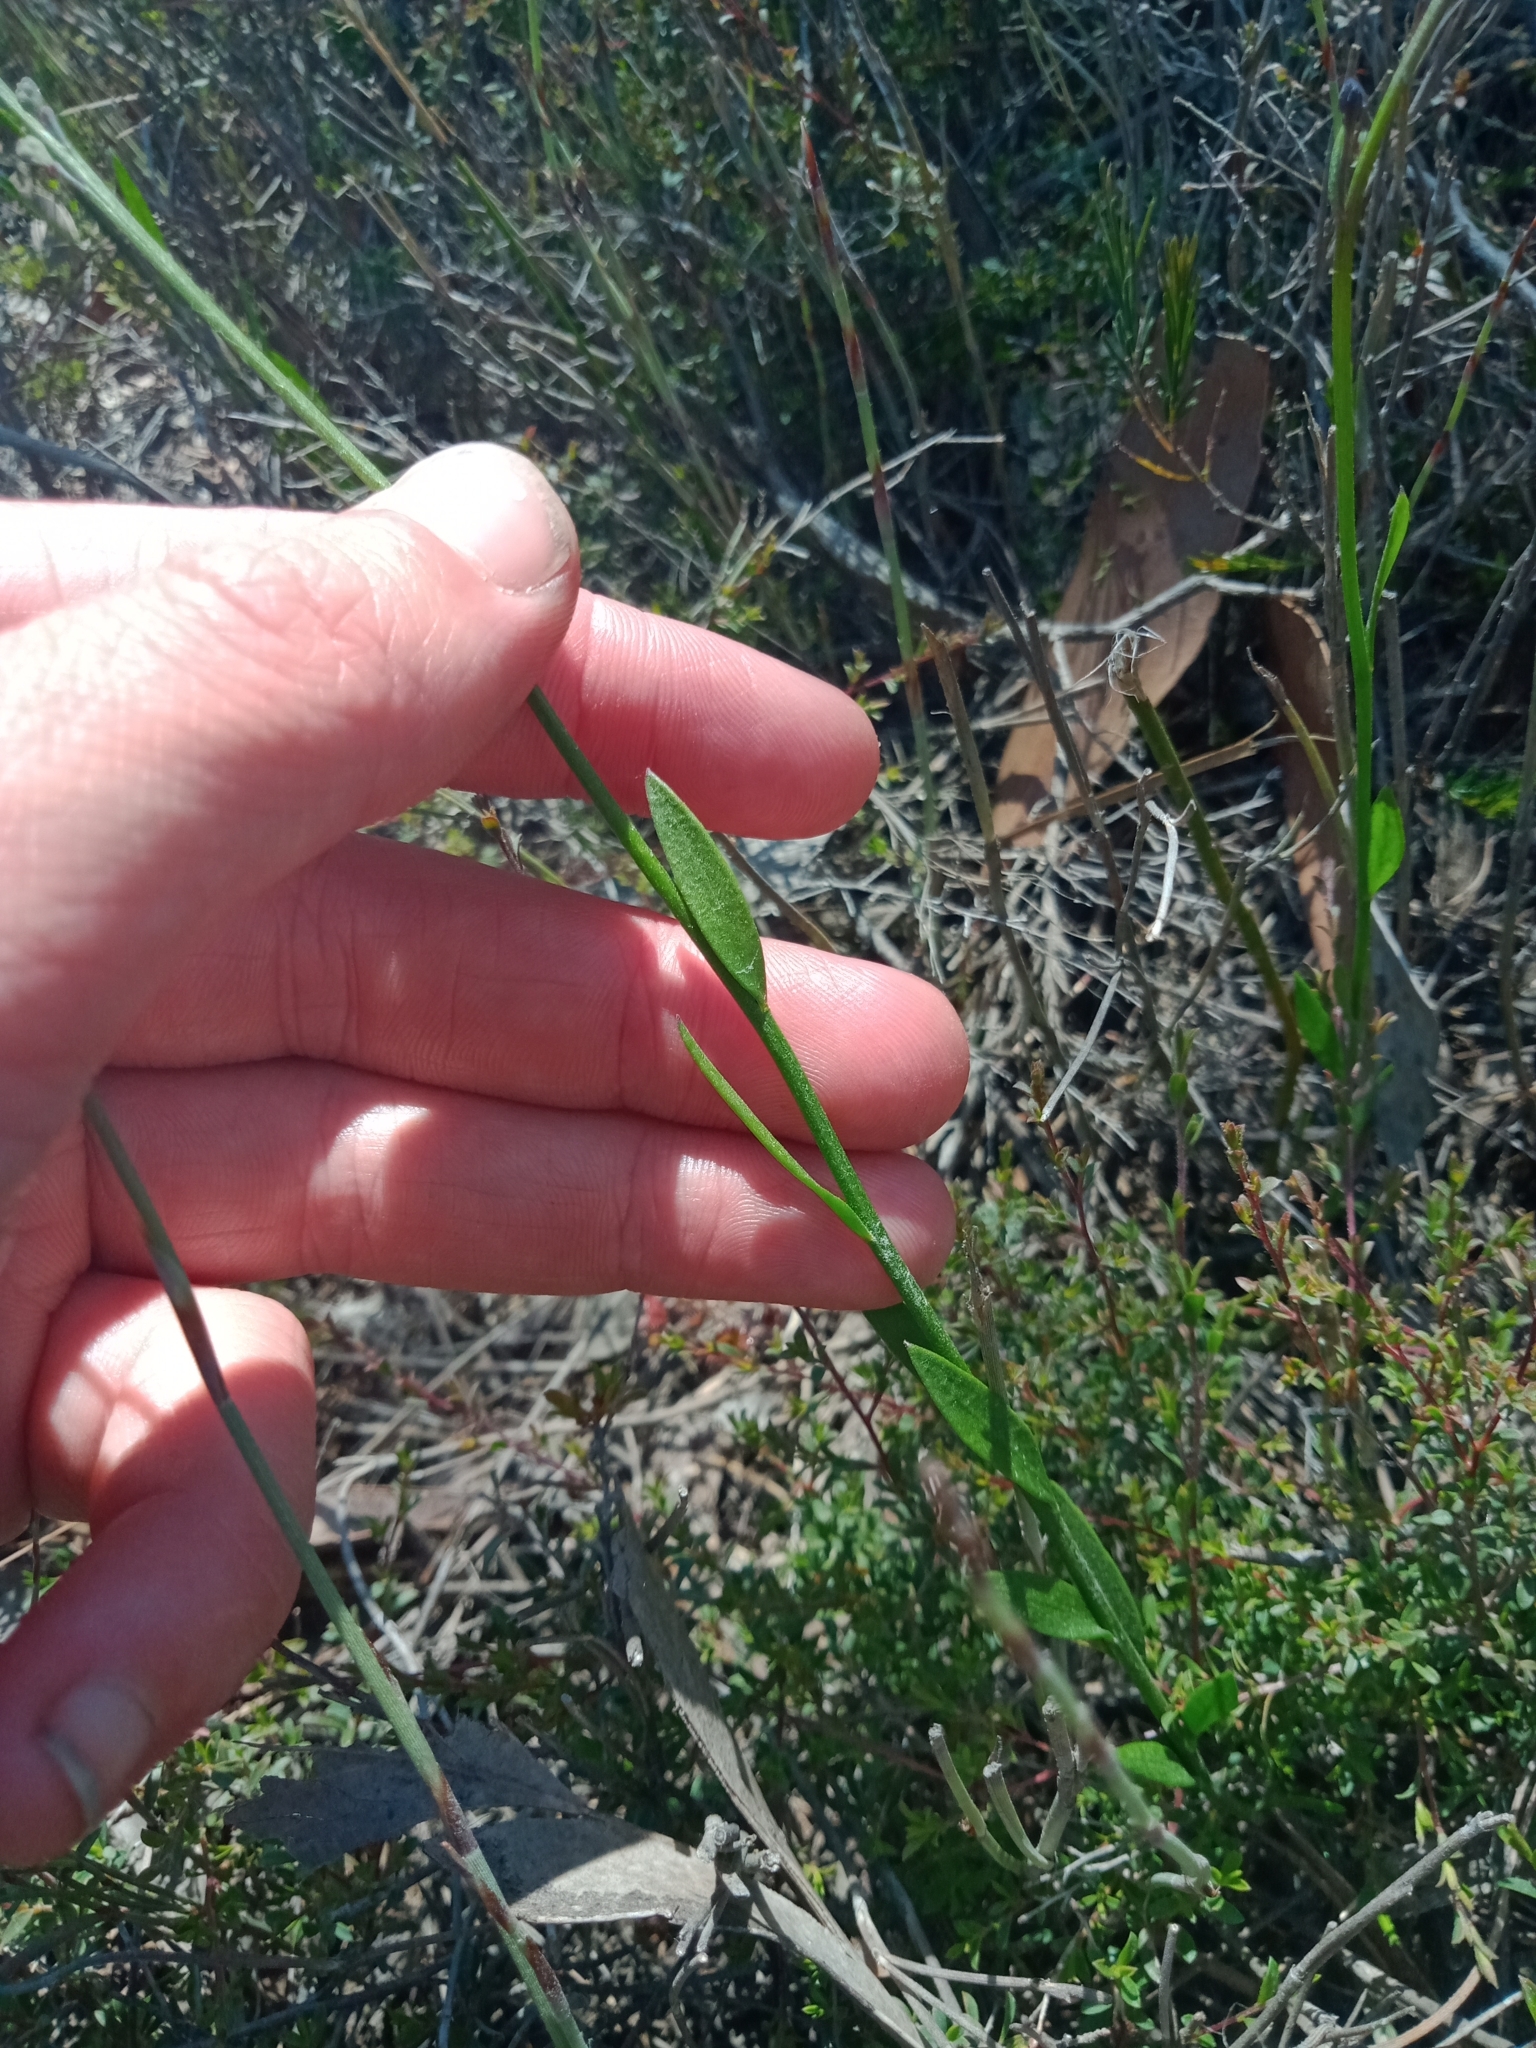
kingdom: Plantae
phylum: Tracheophyta
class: Magnoliopsida
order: Fabales
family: Polygalaceae
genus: Comesperma
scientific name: Comesperma calymega
